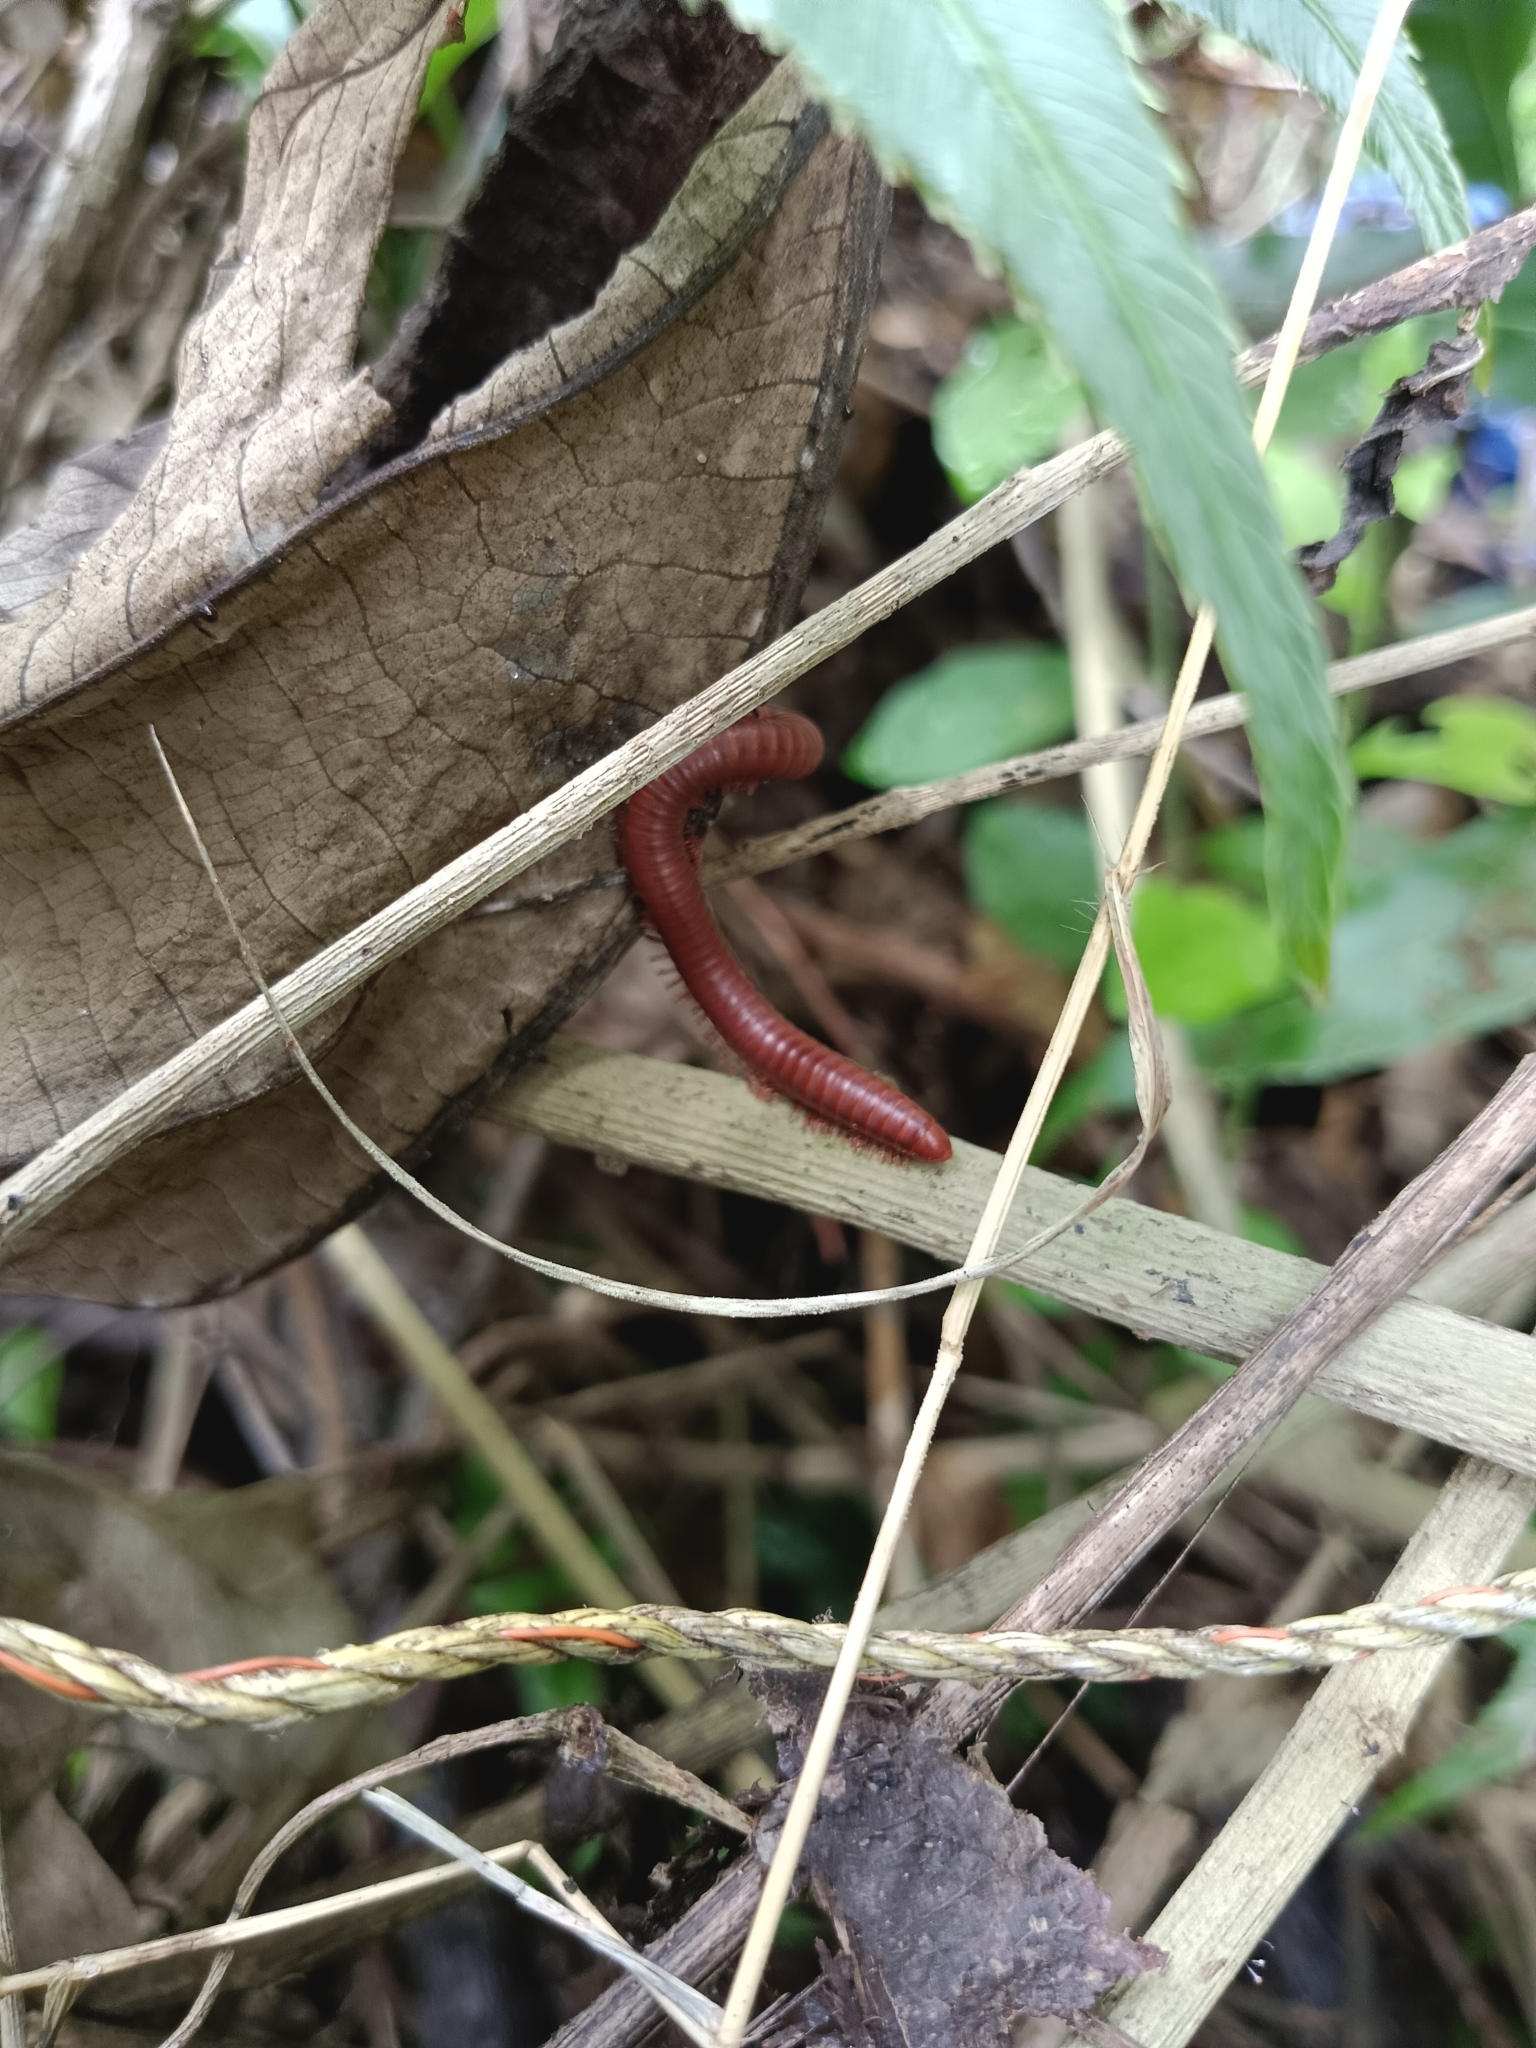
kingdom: Animalia
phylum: Arthropoda
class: Diplopoda
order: Spirobolida
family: Pachybolidae
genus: Trigoniulus
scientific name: Trigoniulus corallinus
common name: Millipede
